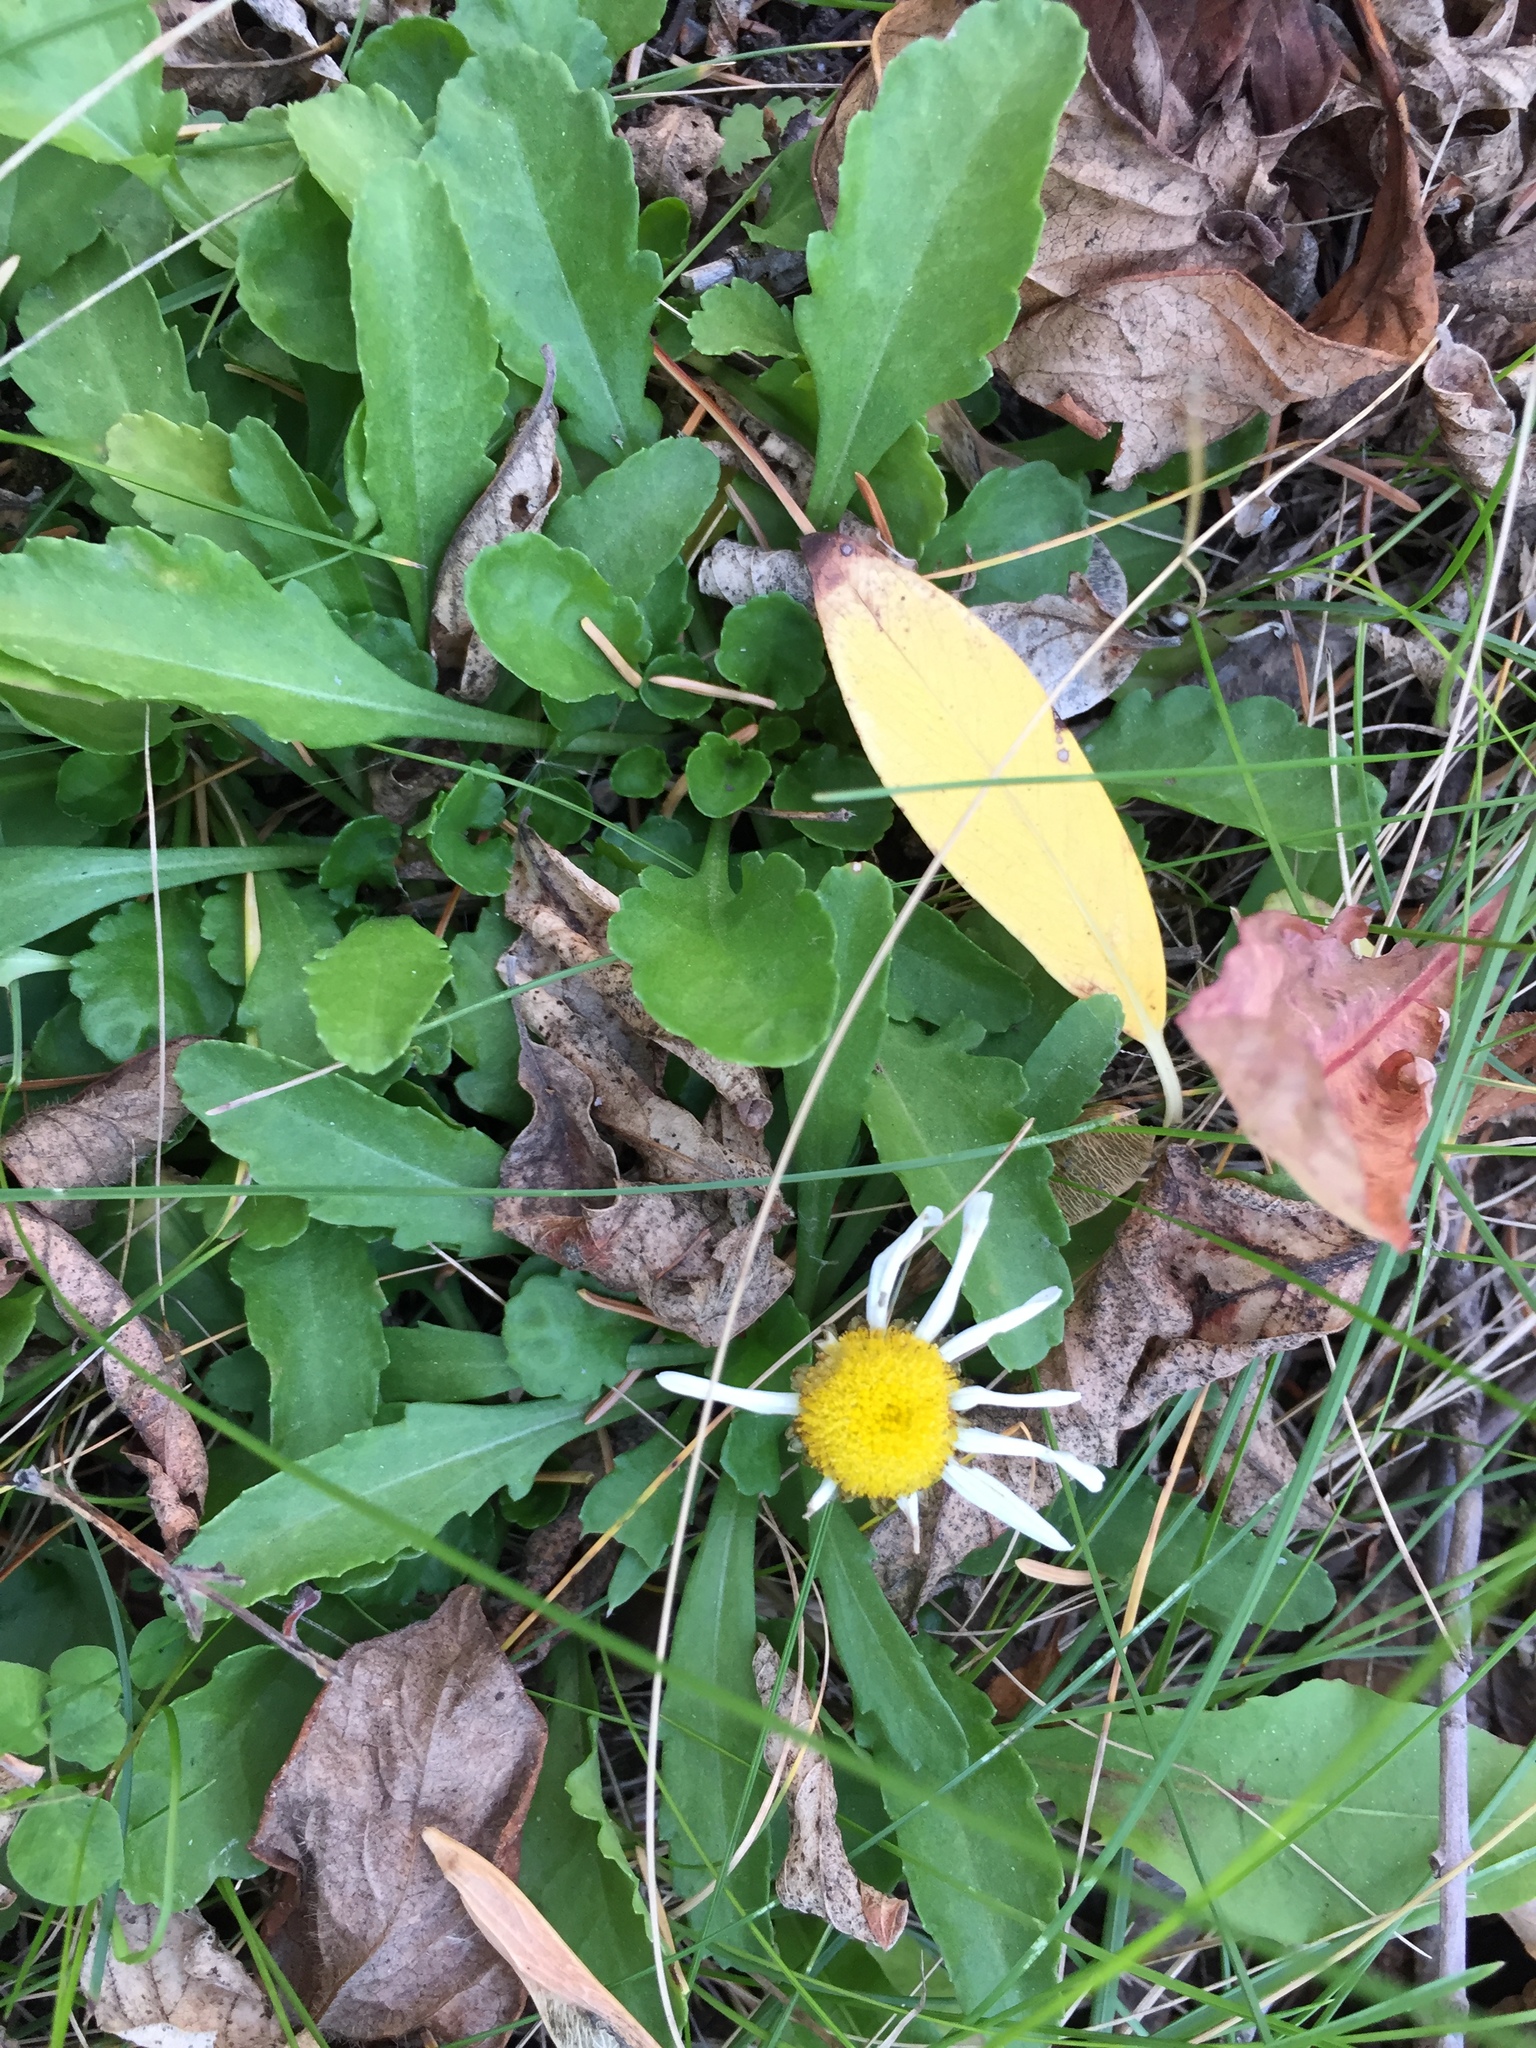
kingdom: Plantae
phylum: Tracheophyta
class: Magnoliopsida
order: Asterales
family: Asteraceae
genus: Leucanthemum
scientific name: Leucanthemum vulgare
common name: Oxeye daisy
